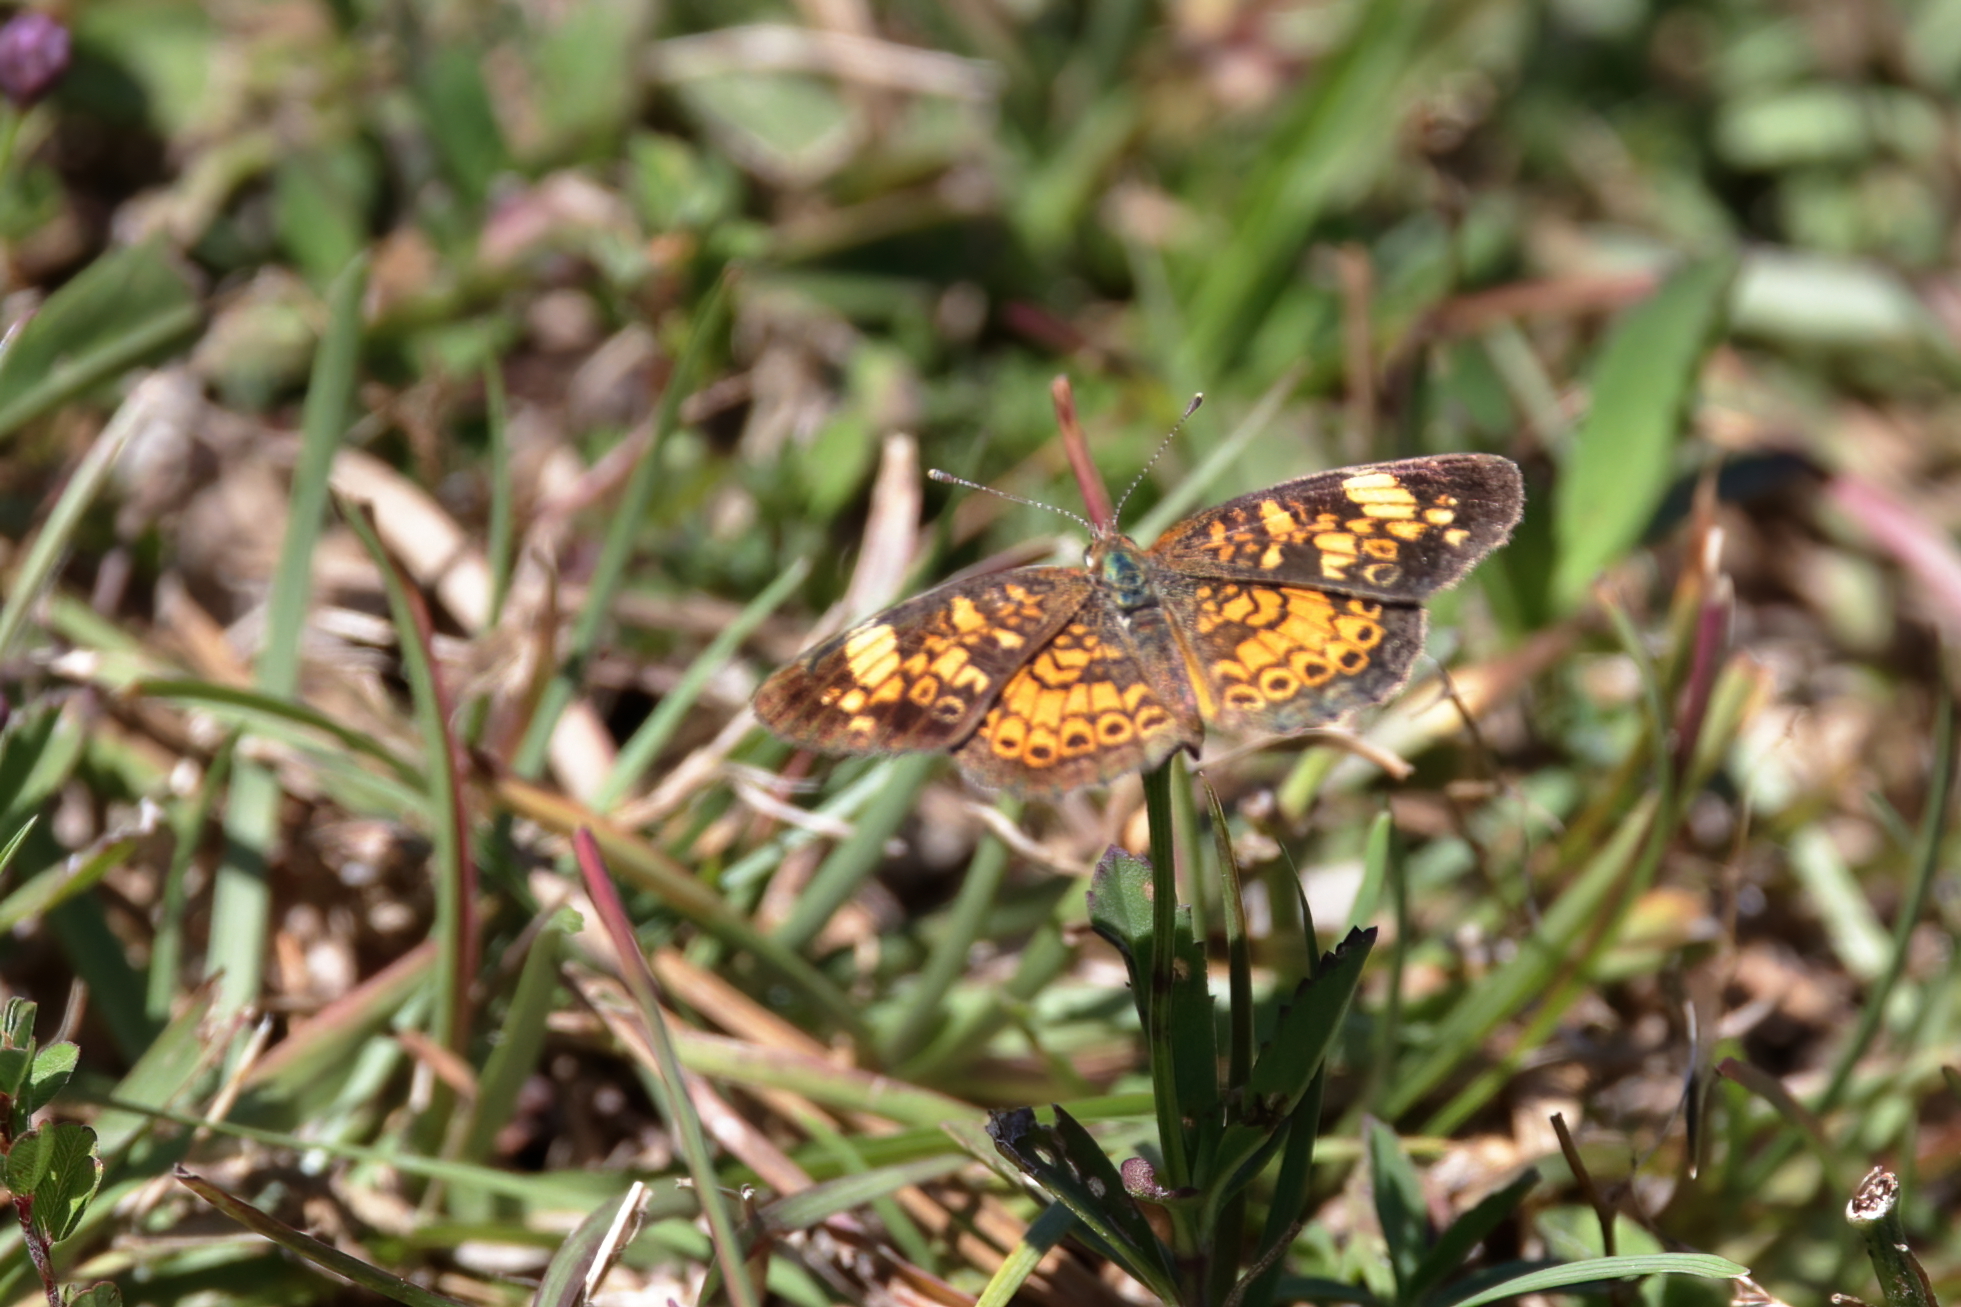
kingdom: Animalia
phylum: Arthropoda
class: Insecta
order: Lepidoptera
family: Nymphalidae
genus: Phyciodes
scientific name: Phyciodes tharos
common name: Pearl crescent
